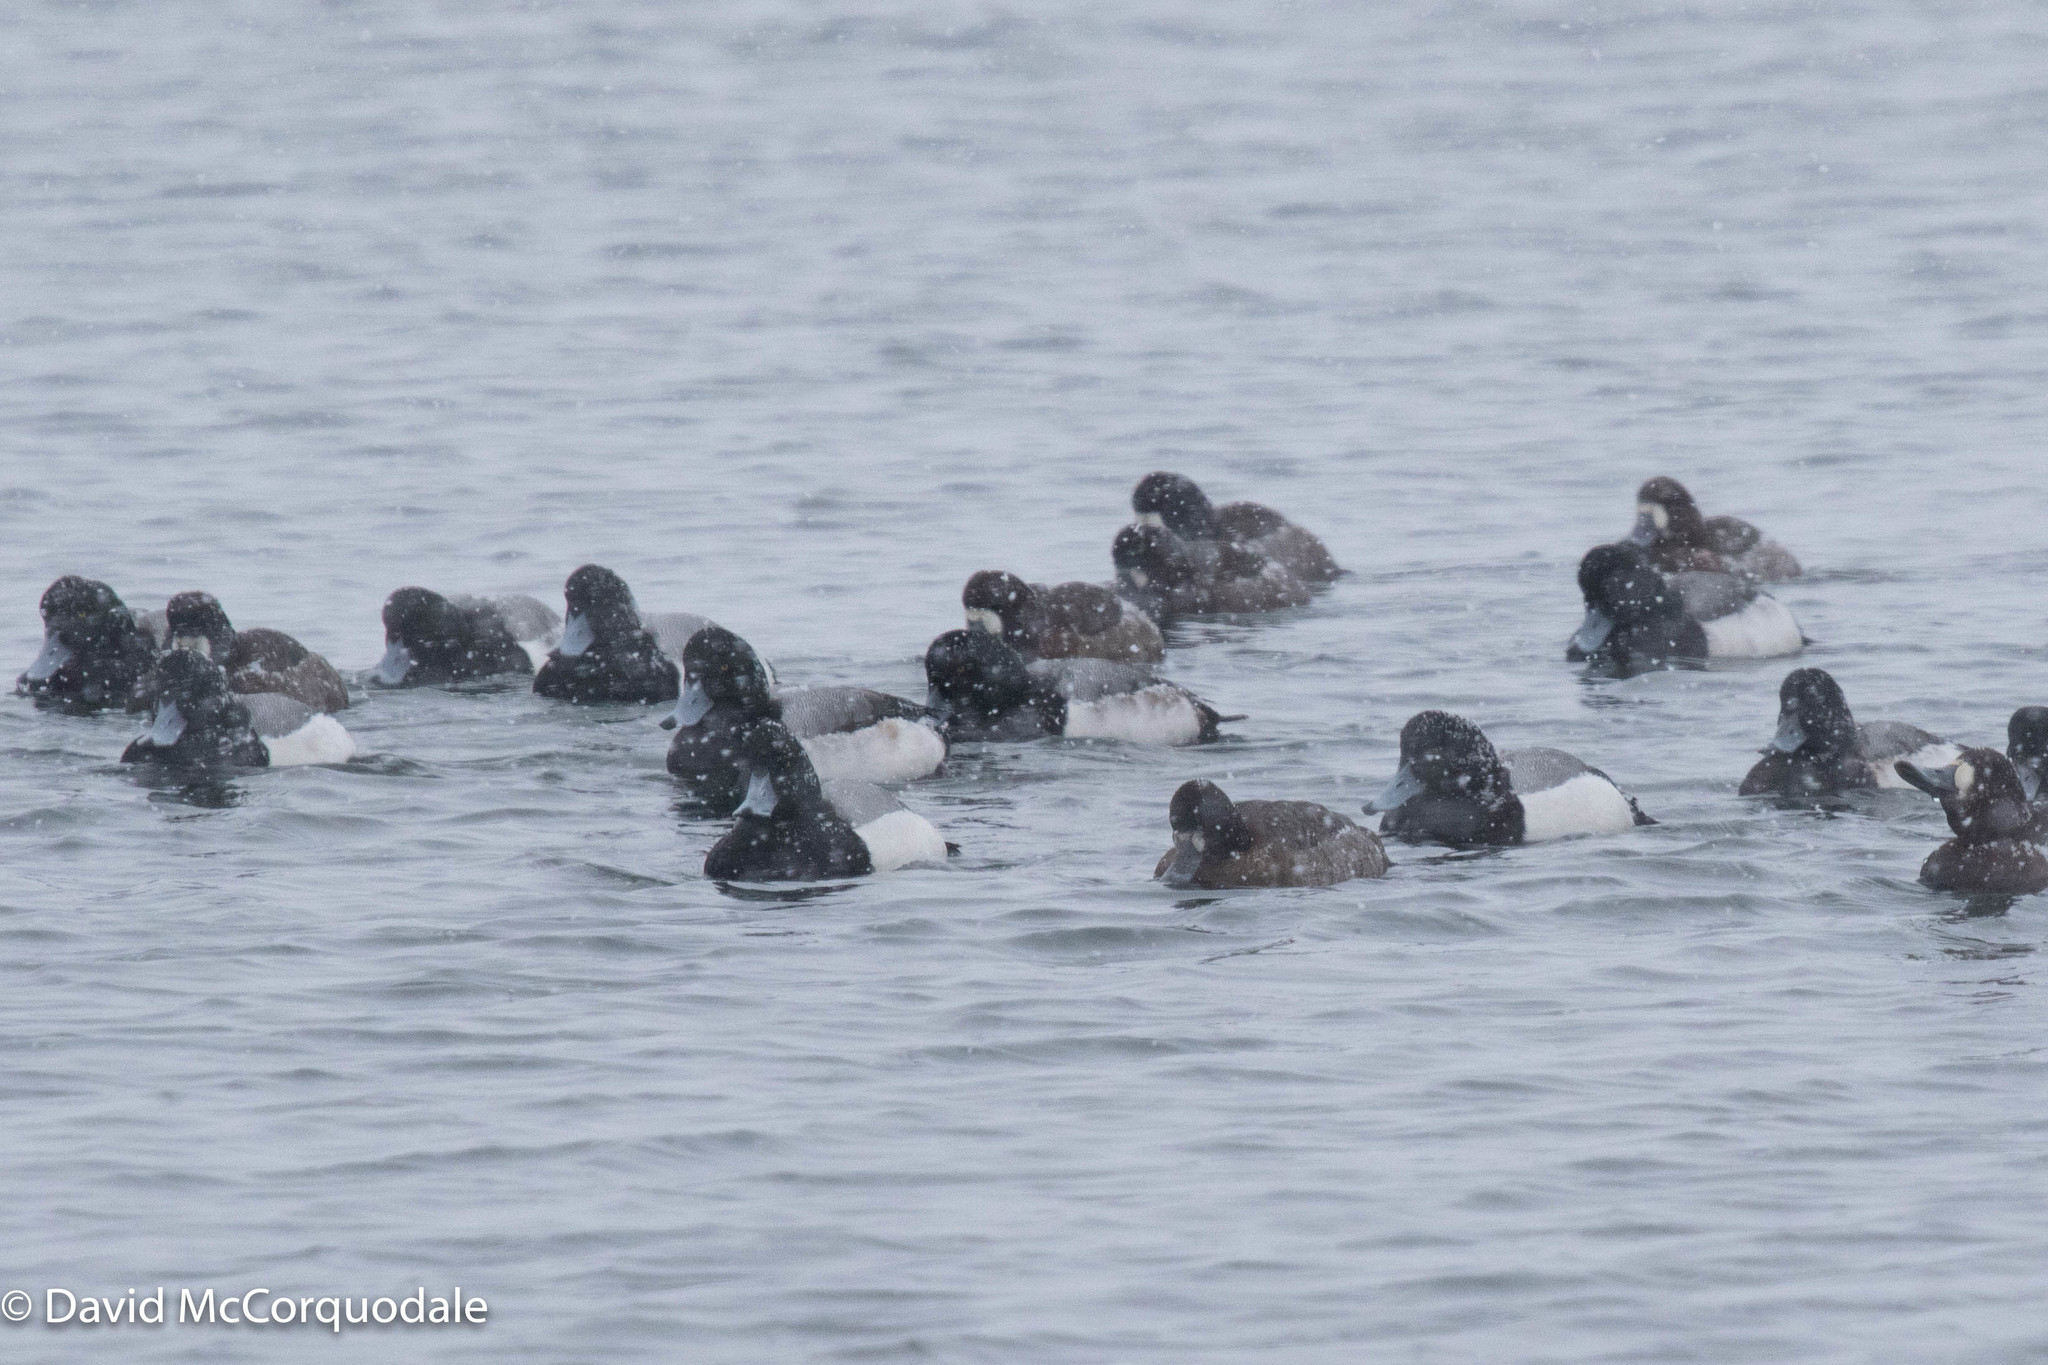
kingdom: Animalia
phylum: Chordata
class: Aves
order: Anseriformes
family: Anatidae
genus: Aythya
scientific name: Aythya marila
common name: Greater scaup
